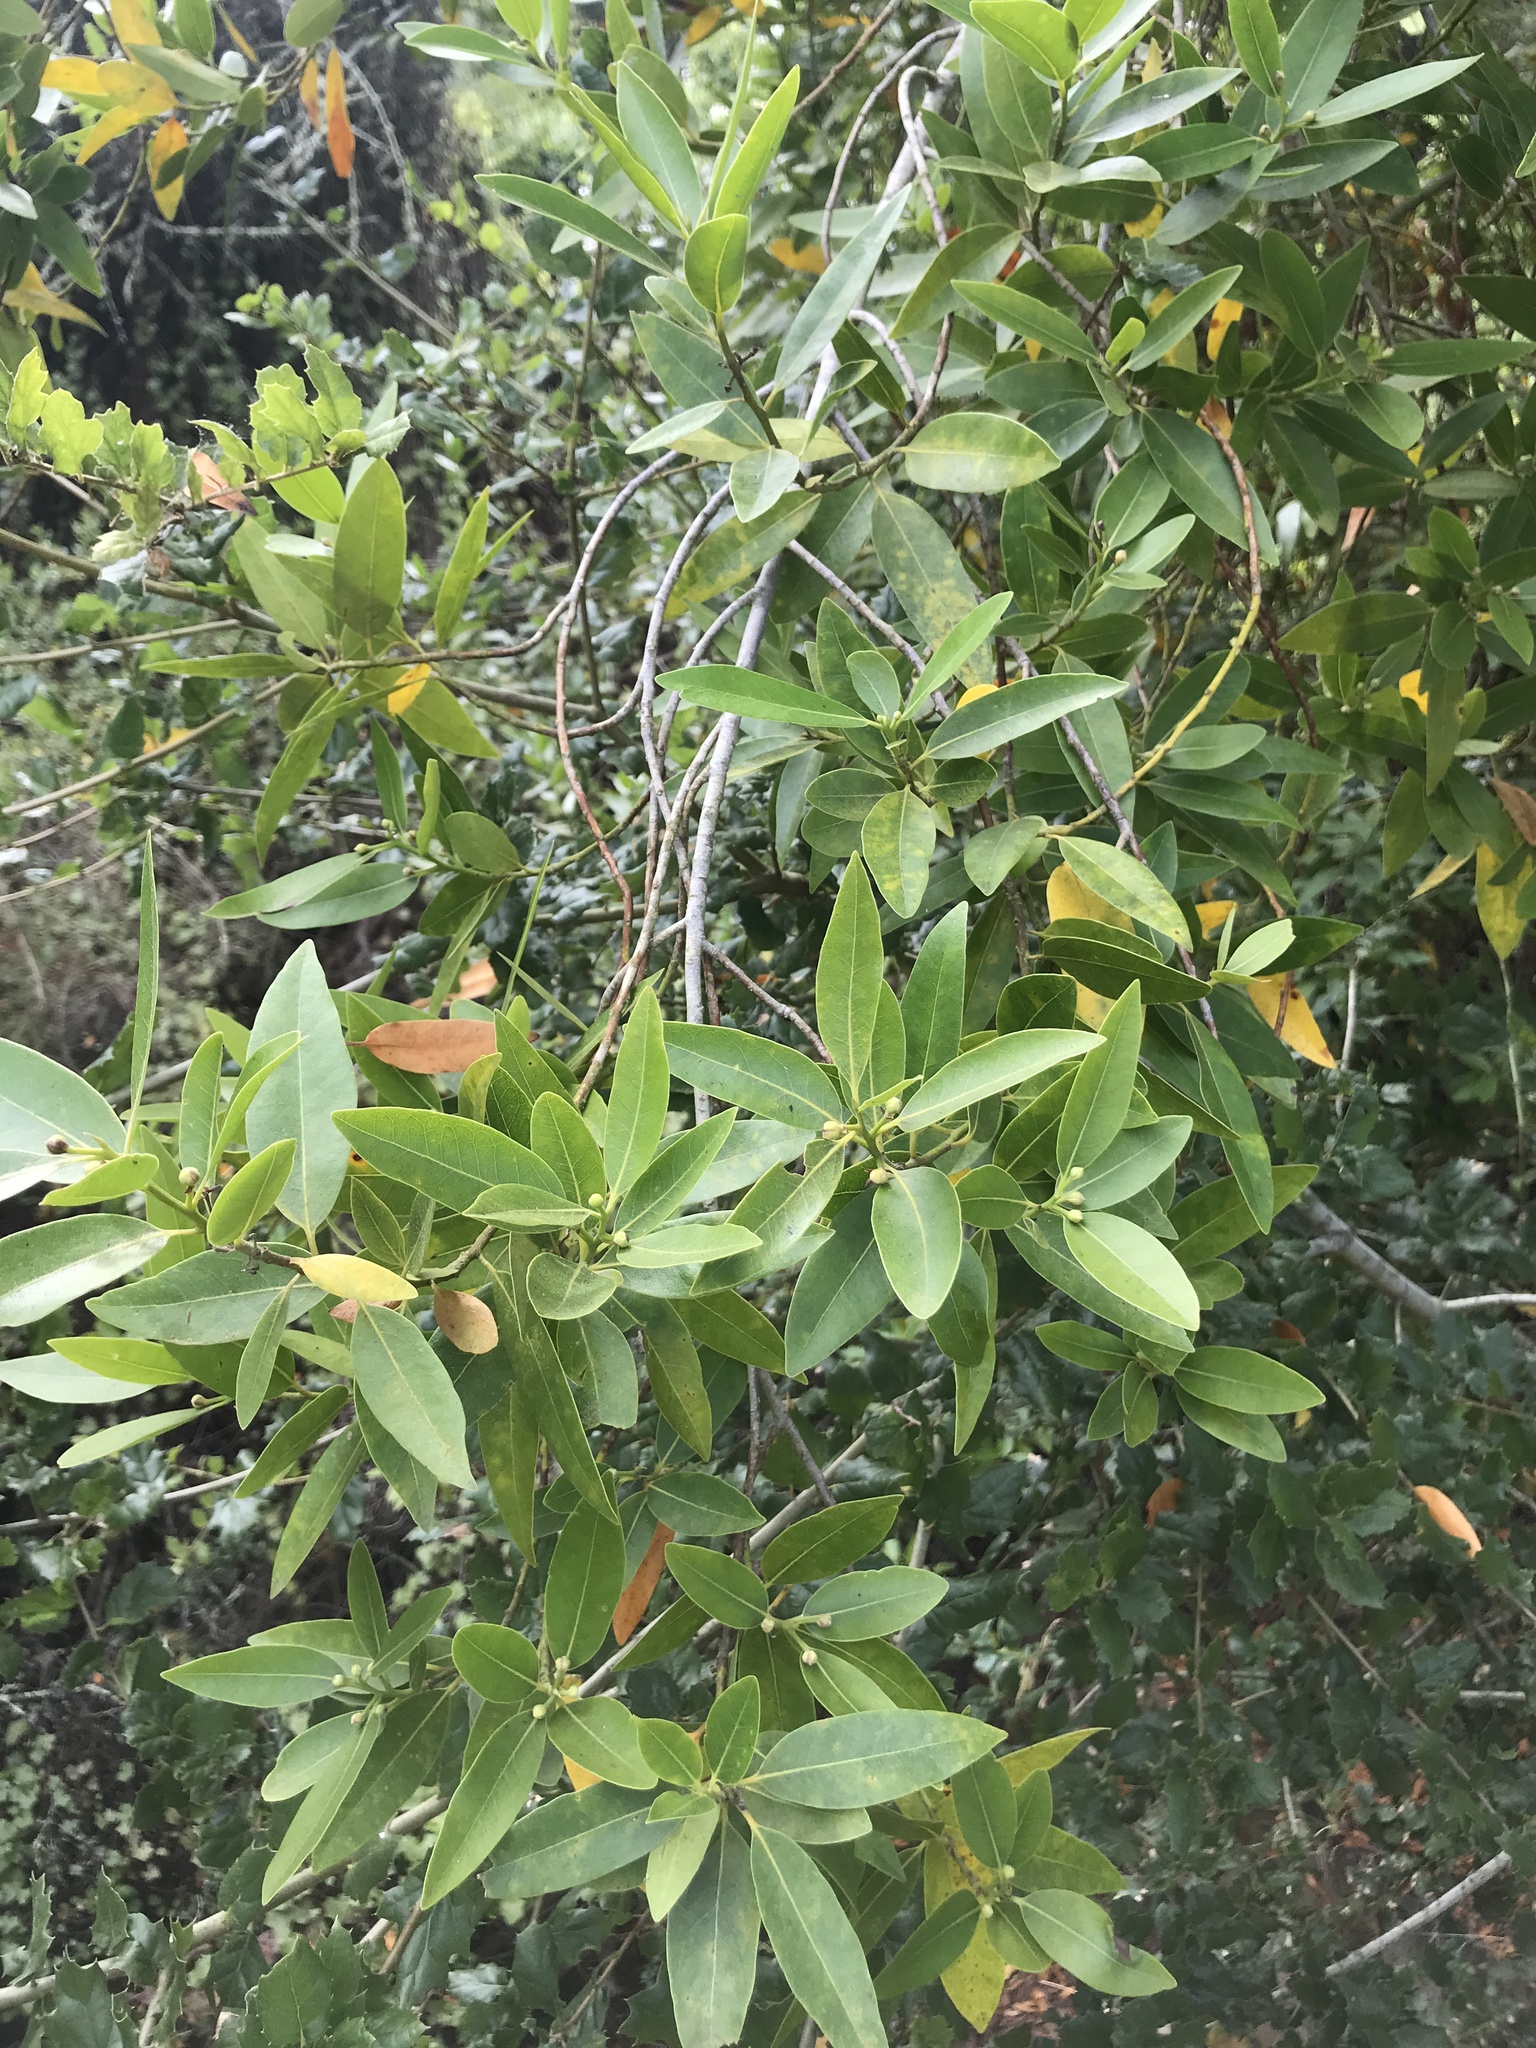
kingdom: Plantae
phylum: Tracheophyta
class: Magnoliopsida
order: Laurales
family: Lauraceae
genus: Umbellularia
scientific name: Umbellularia californica
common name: California bay
